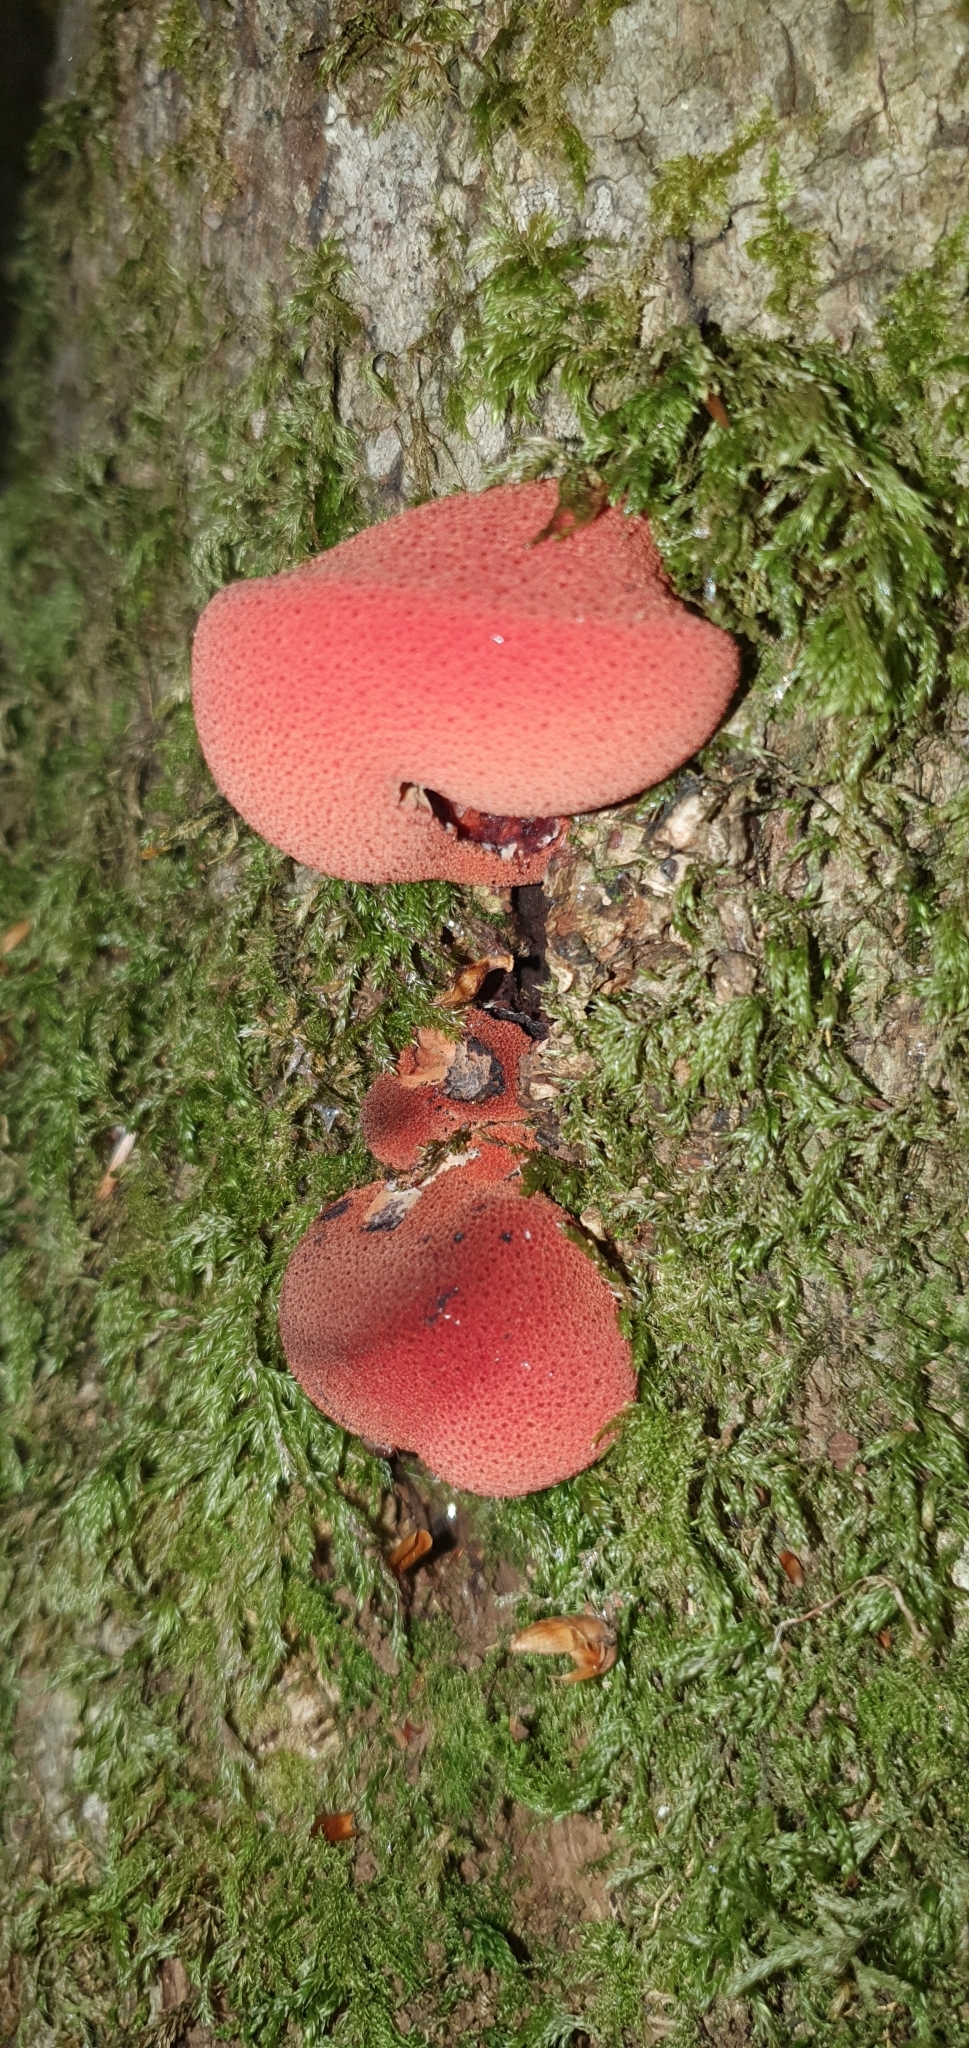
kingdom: Fungi
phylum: Basidiomycota
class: Agaricomycetes
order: Agaricales
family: Fistulinaceae
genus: Fistulina
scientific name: Fistulina hepatica
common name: Beef-steak fungus
